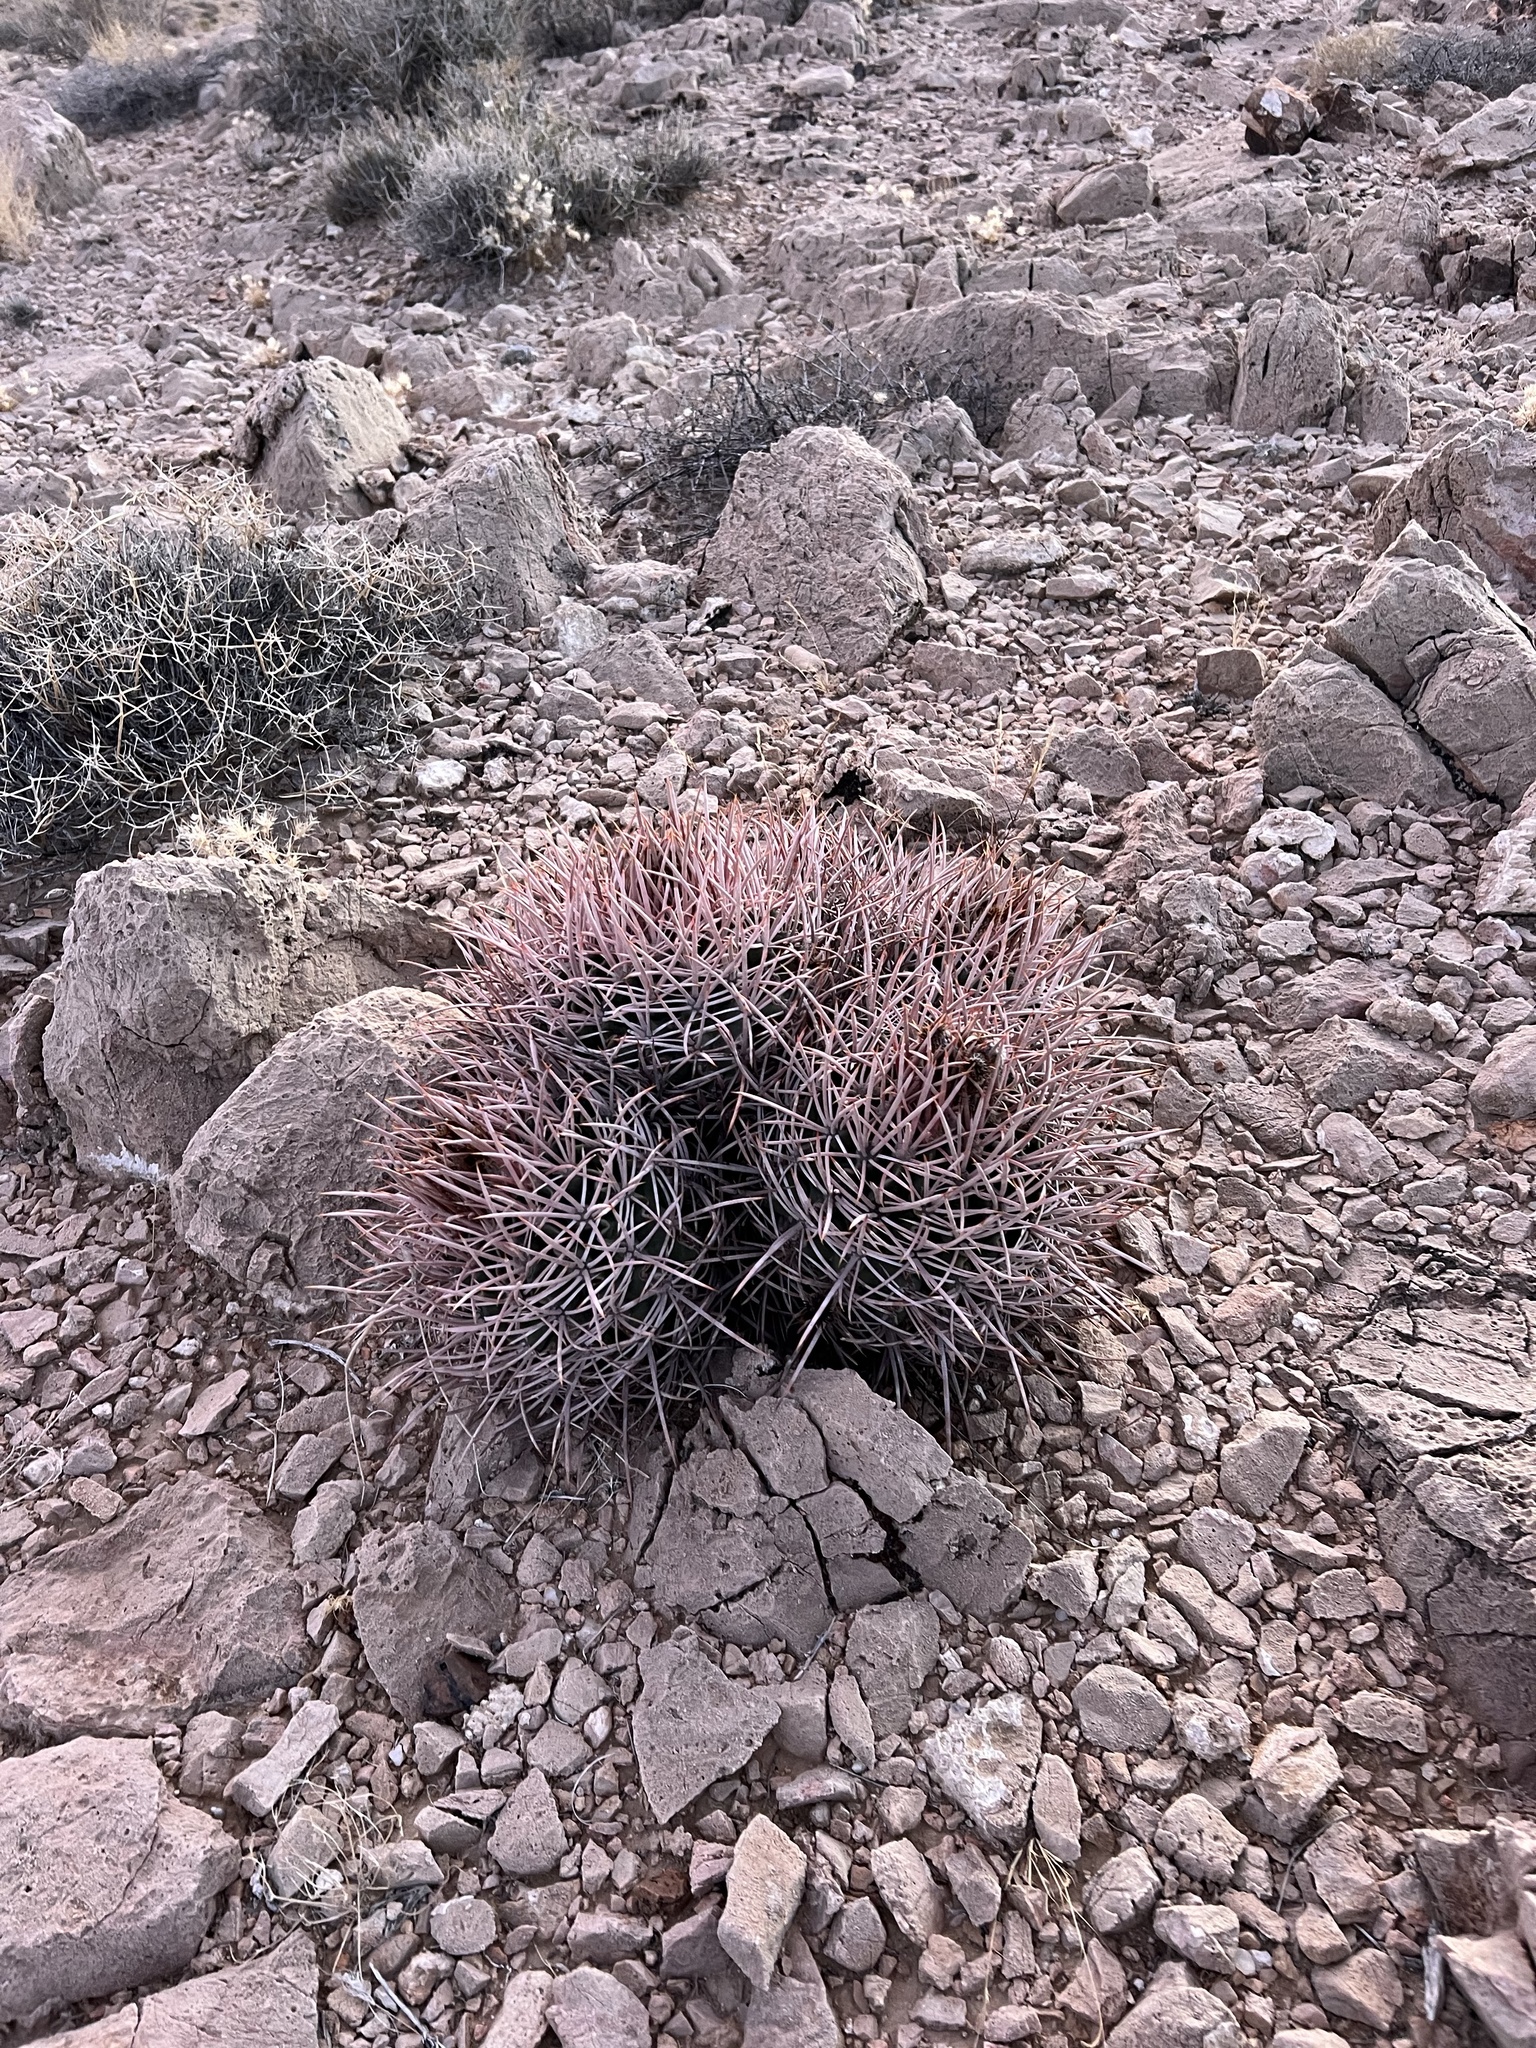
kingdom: Plantae
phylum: Tracheophyta
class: Magnoliopsida
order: Caryophyllales
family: Cactaceae
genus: Echinocactus
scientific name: Echinocactus polycephalus
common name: Cottontop cactus
